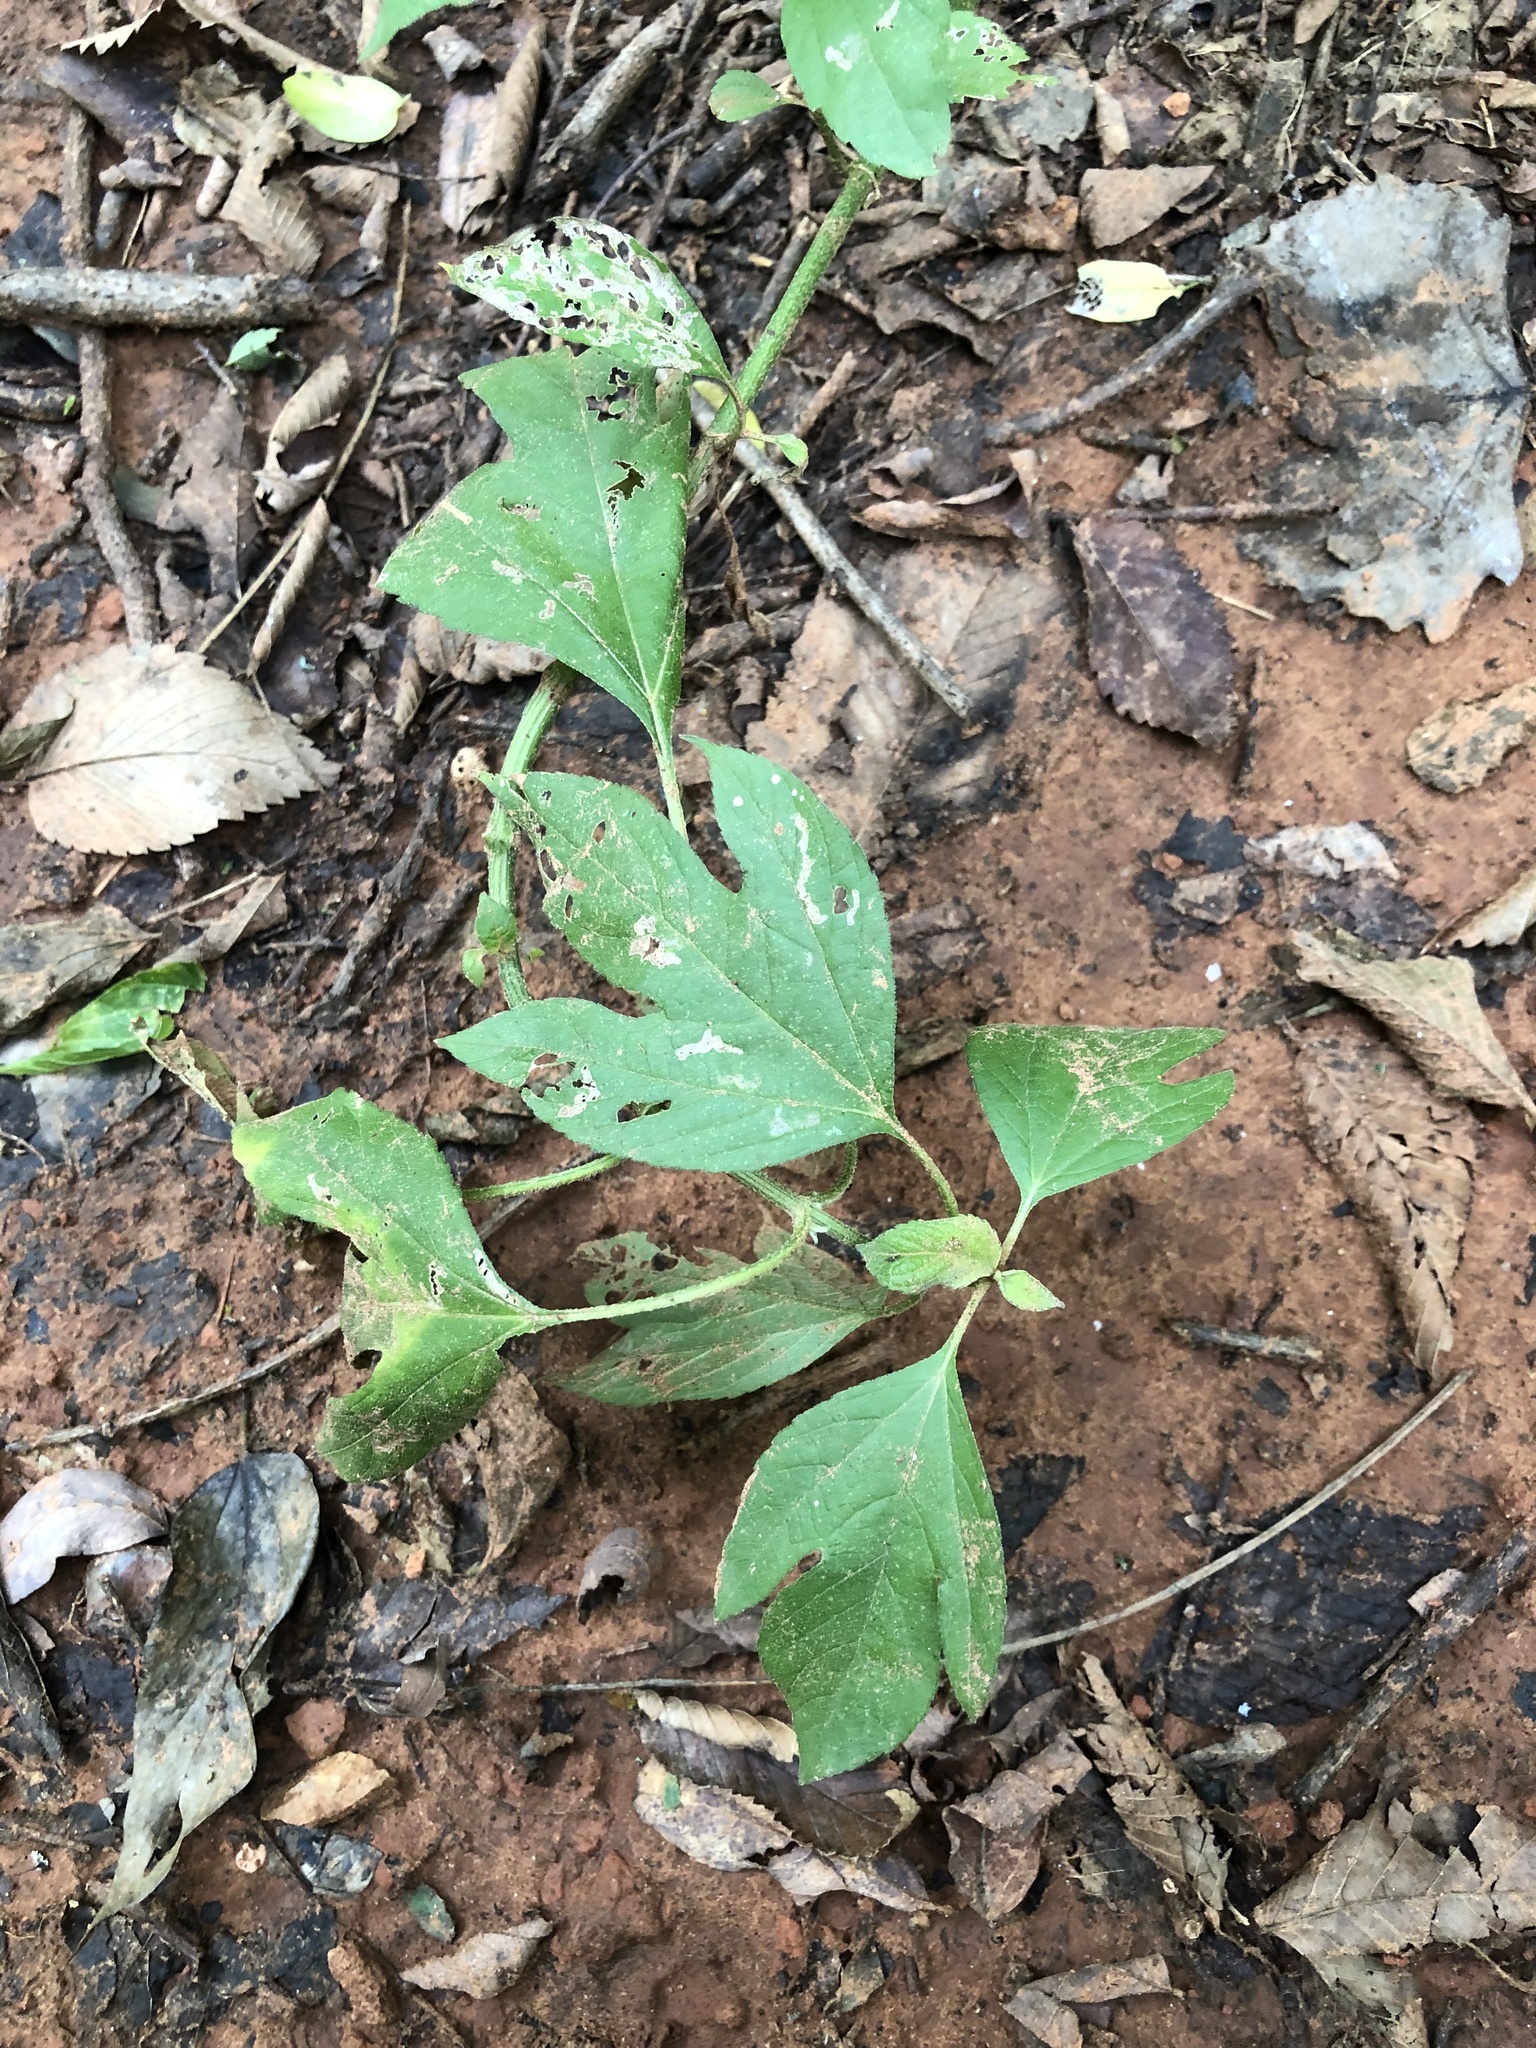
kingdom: Plantae
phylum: Tracheophyta
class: Magnoliopsida
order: Asterales
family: Asteraceae
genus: Ambrosia
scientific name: Ambrosia trifida
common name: Giant ragweed
